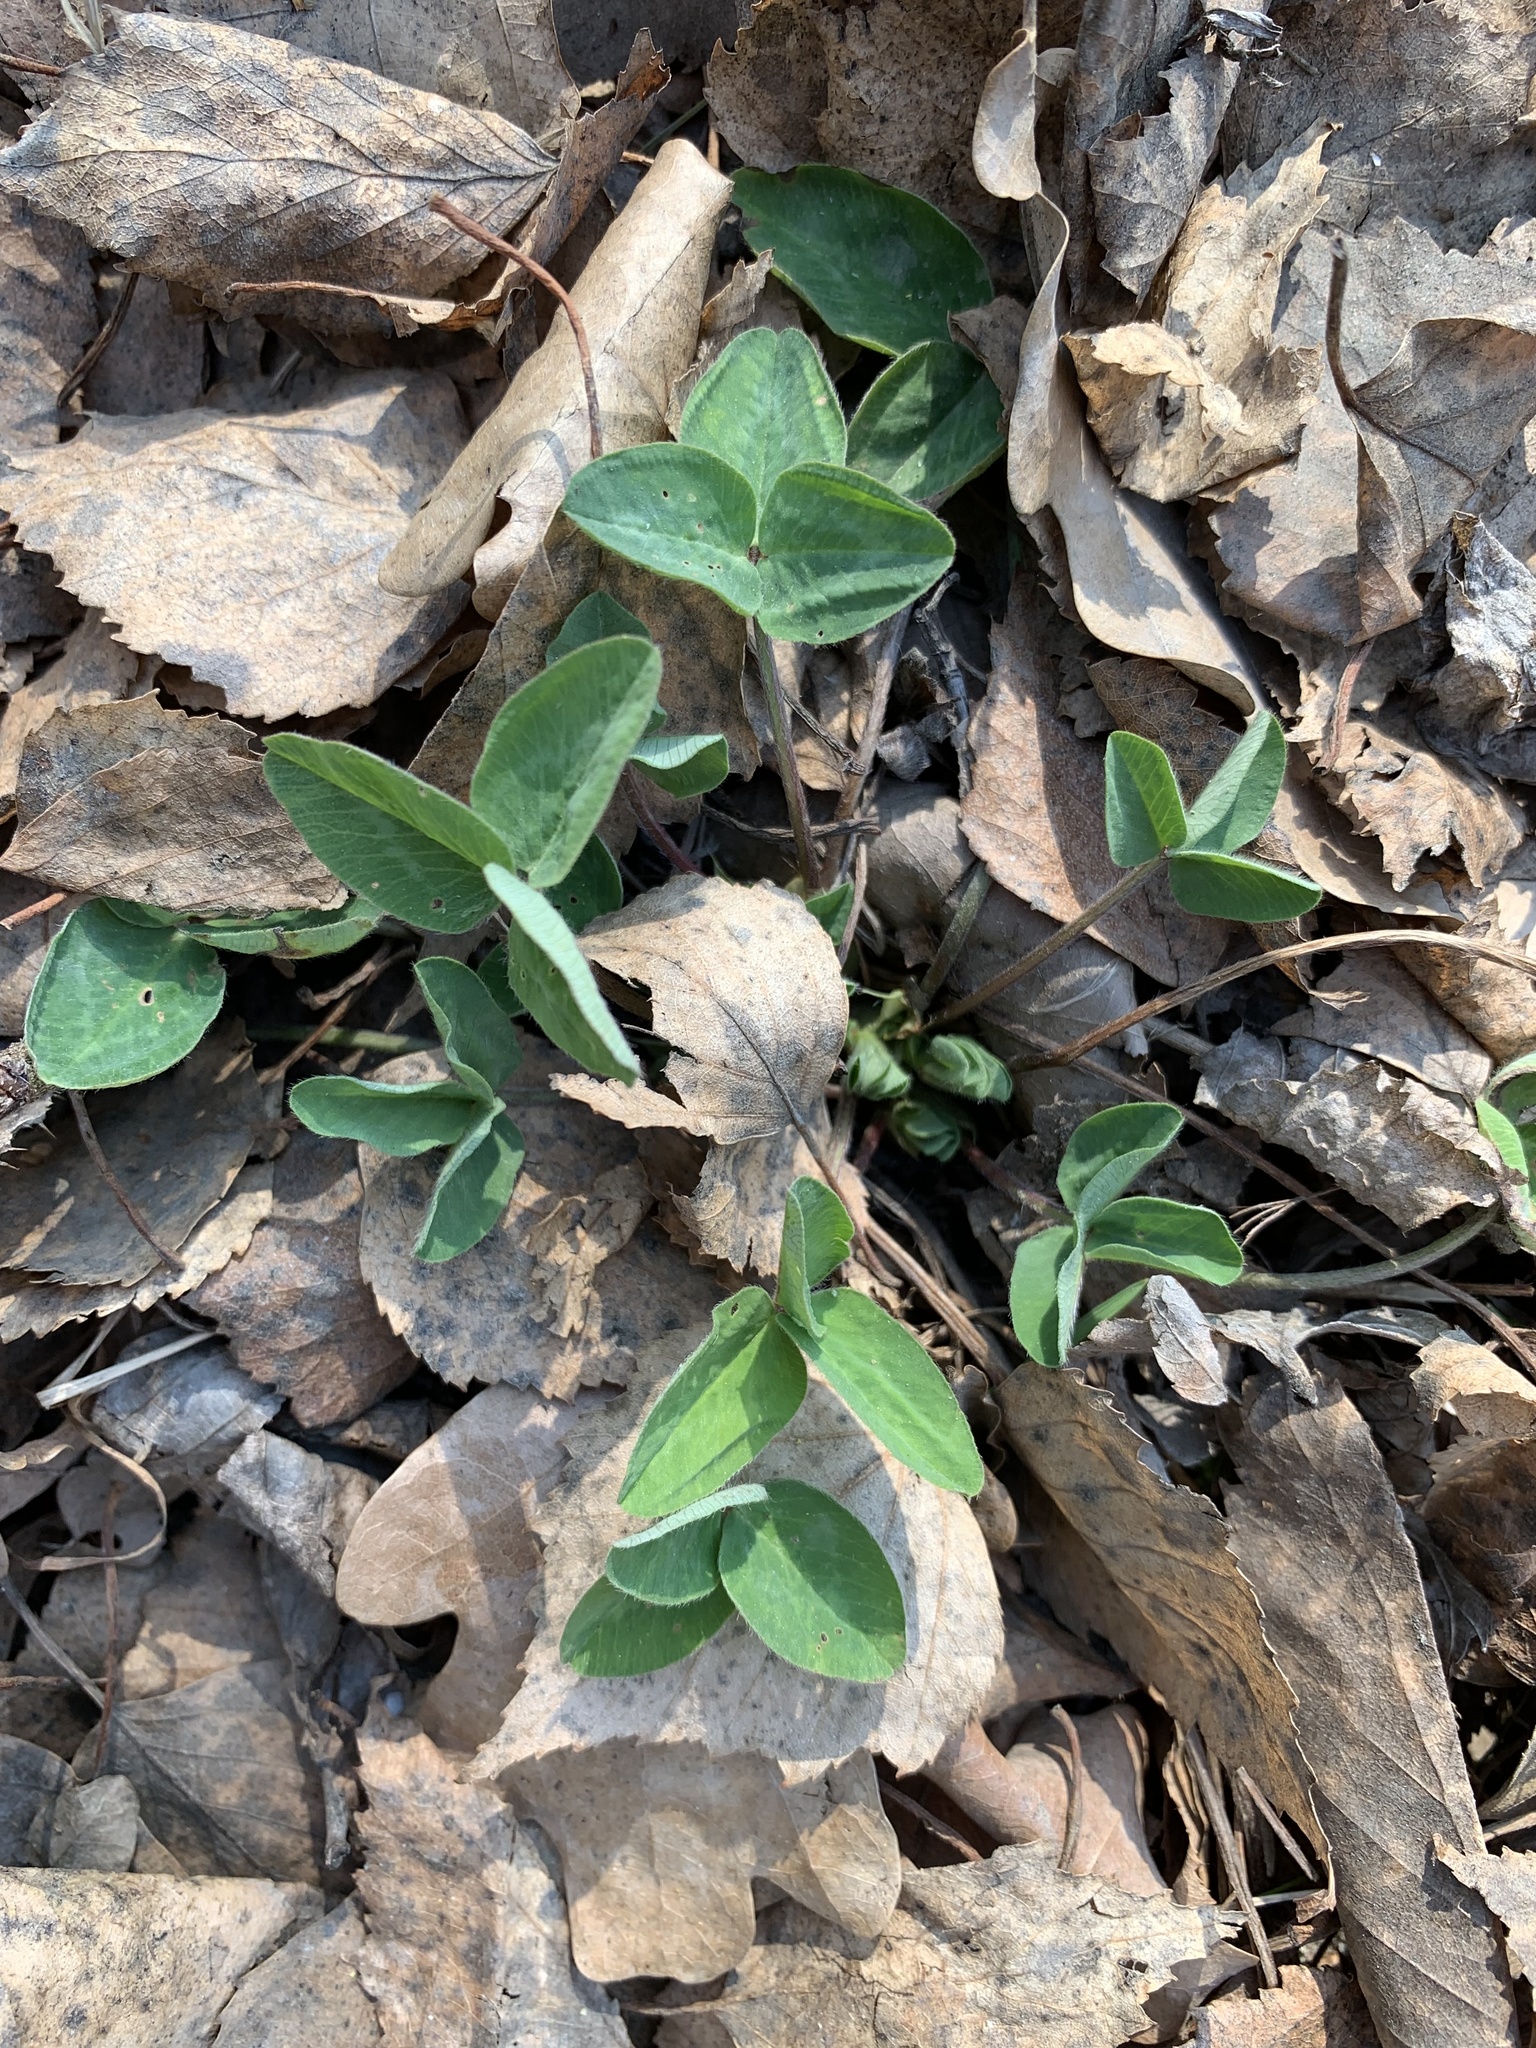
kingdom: Plantae
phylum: Tracheophyta
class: Magnoliopsida
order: Fabales
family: Fabaceae
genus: Trifolium
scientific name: Trifolium pratense
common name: Red clover
